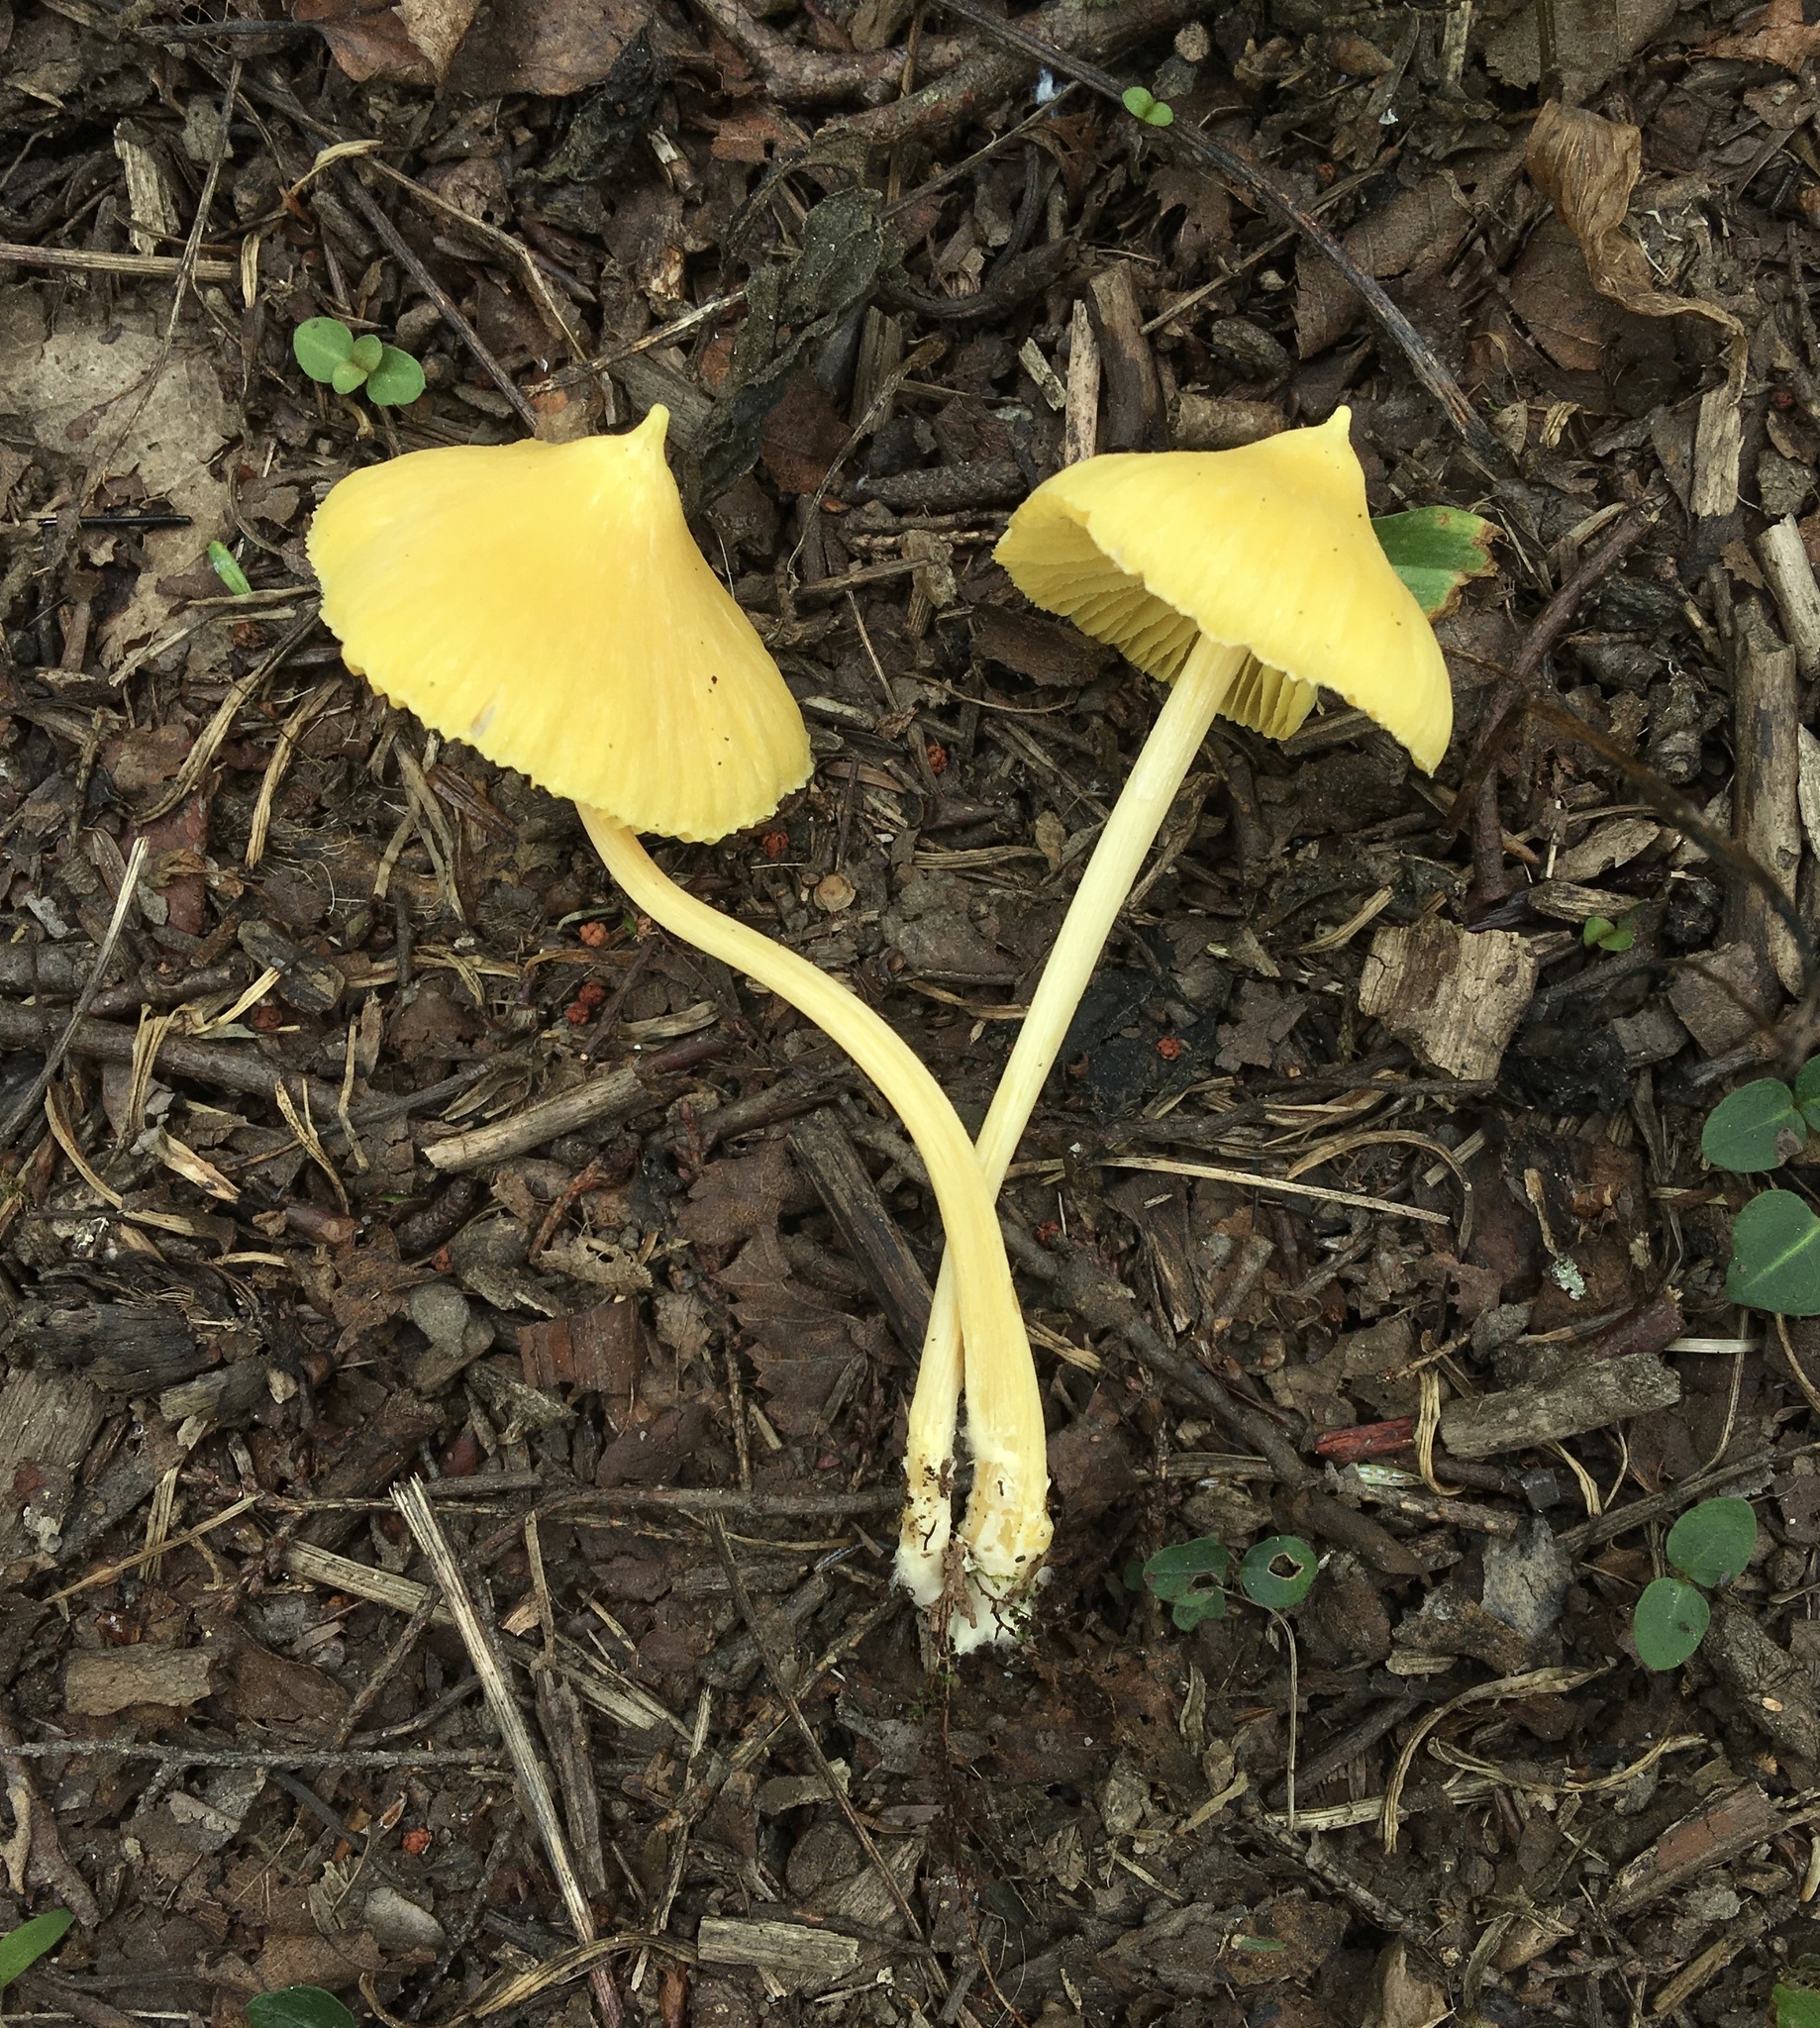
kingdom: Fungi
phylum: Basidiomycota
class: Agaricomycetes
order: Agaricales
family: Entolomataceae
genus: Entoloma
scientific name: Entoloma murrayi
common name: Yellow unicorn entoloma
